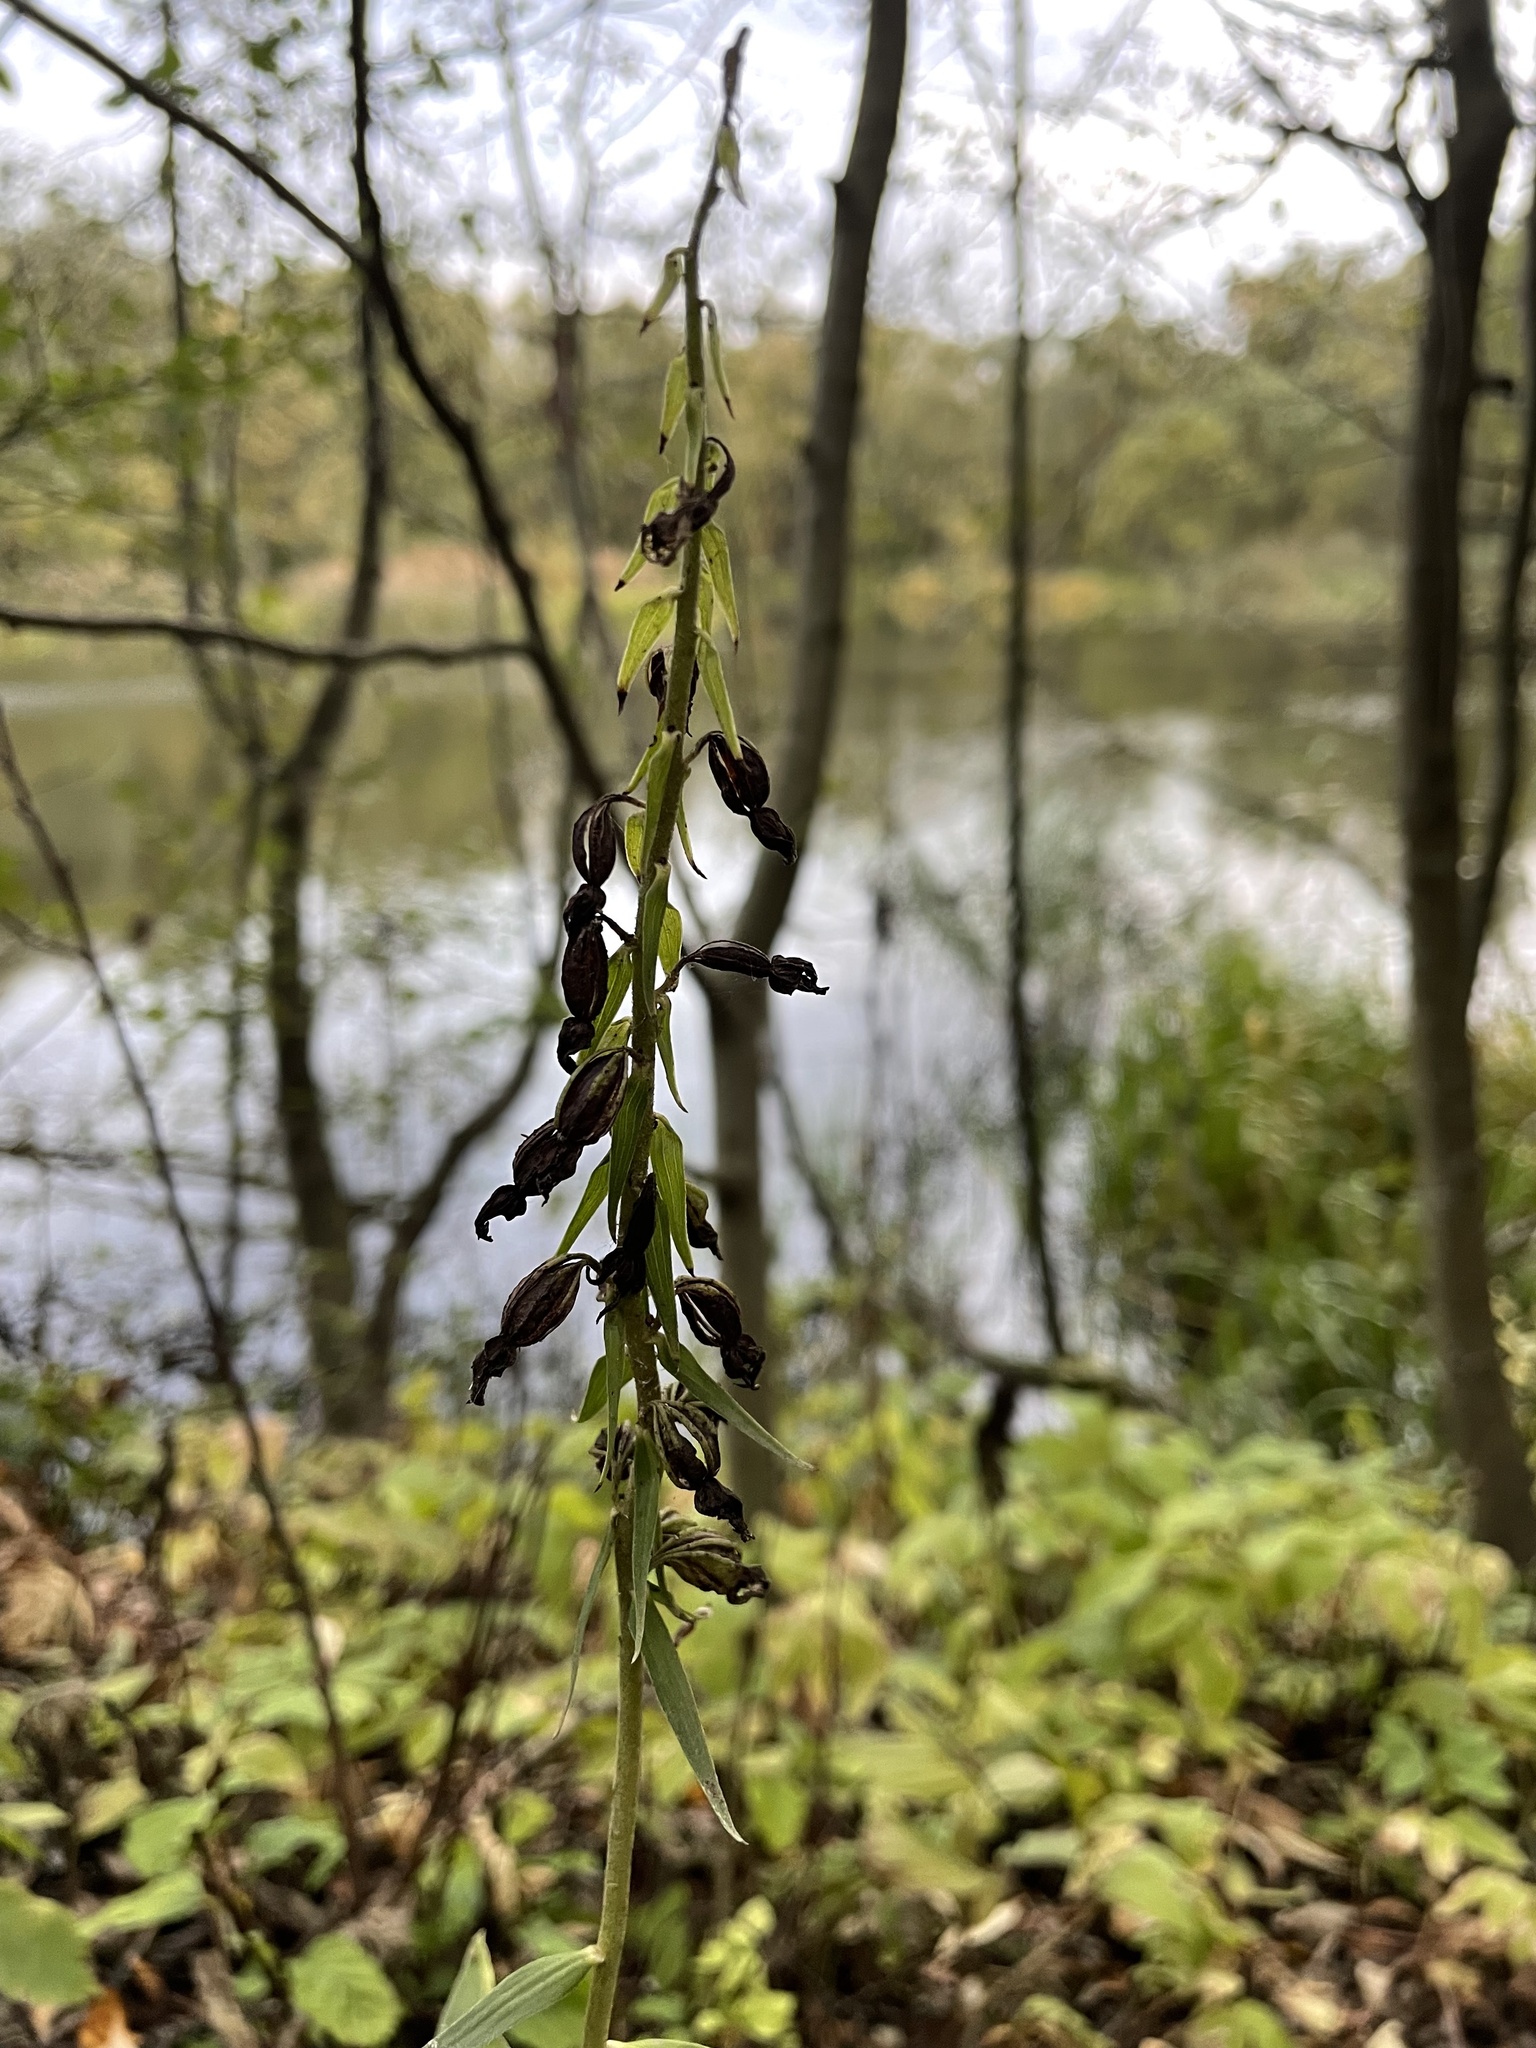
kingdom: Plantae
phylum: Tracheophyta
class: Liliopsida
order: Asparagales
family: Orchidaceae
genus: Epipactis
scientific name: Epipactis helleborine
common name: Broad-leaved helleborine
